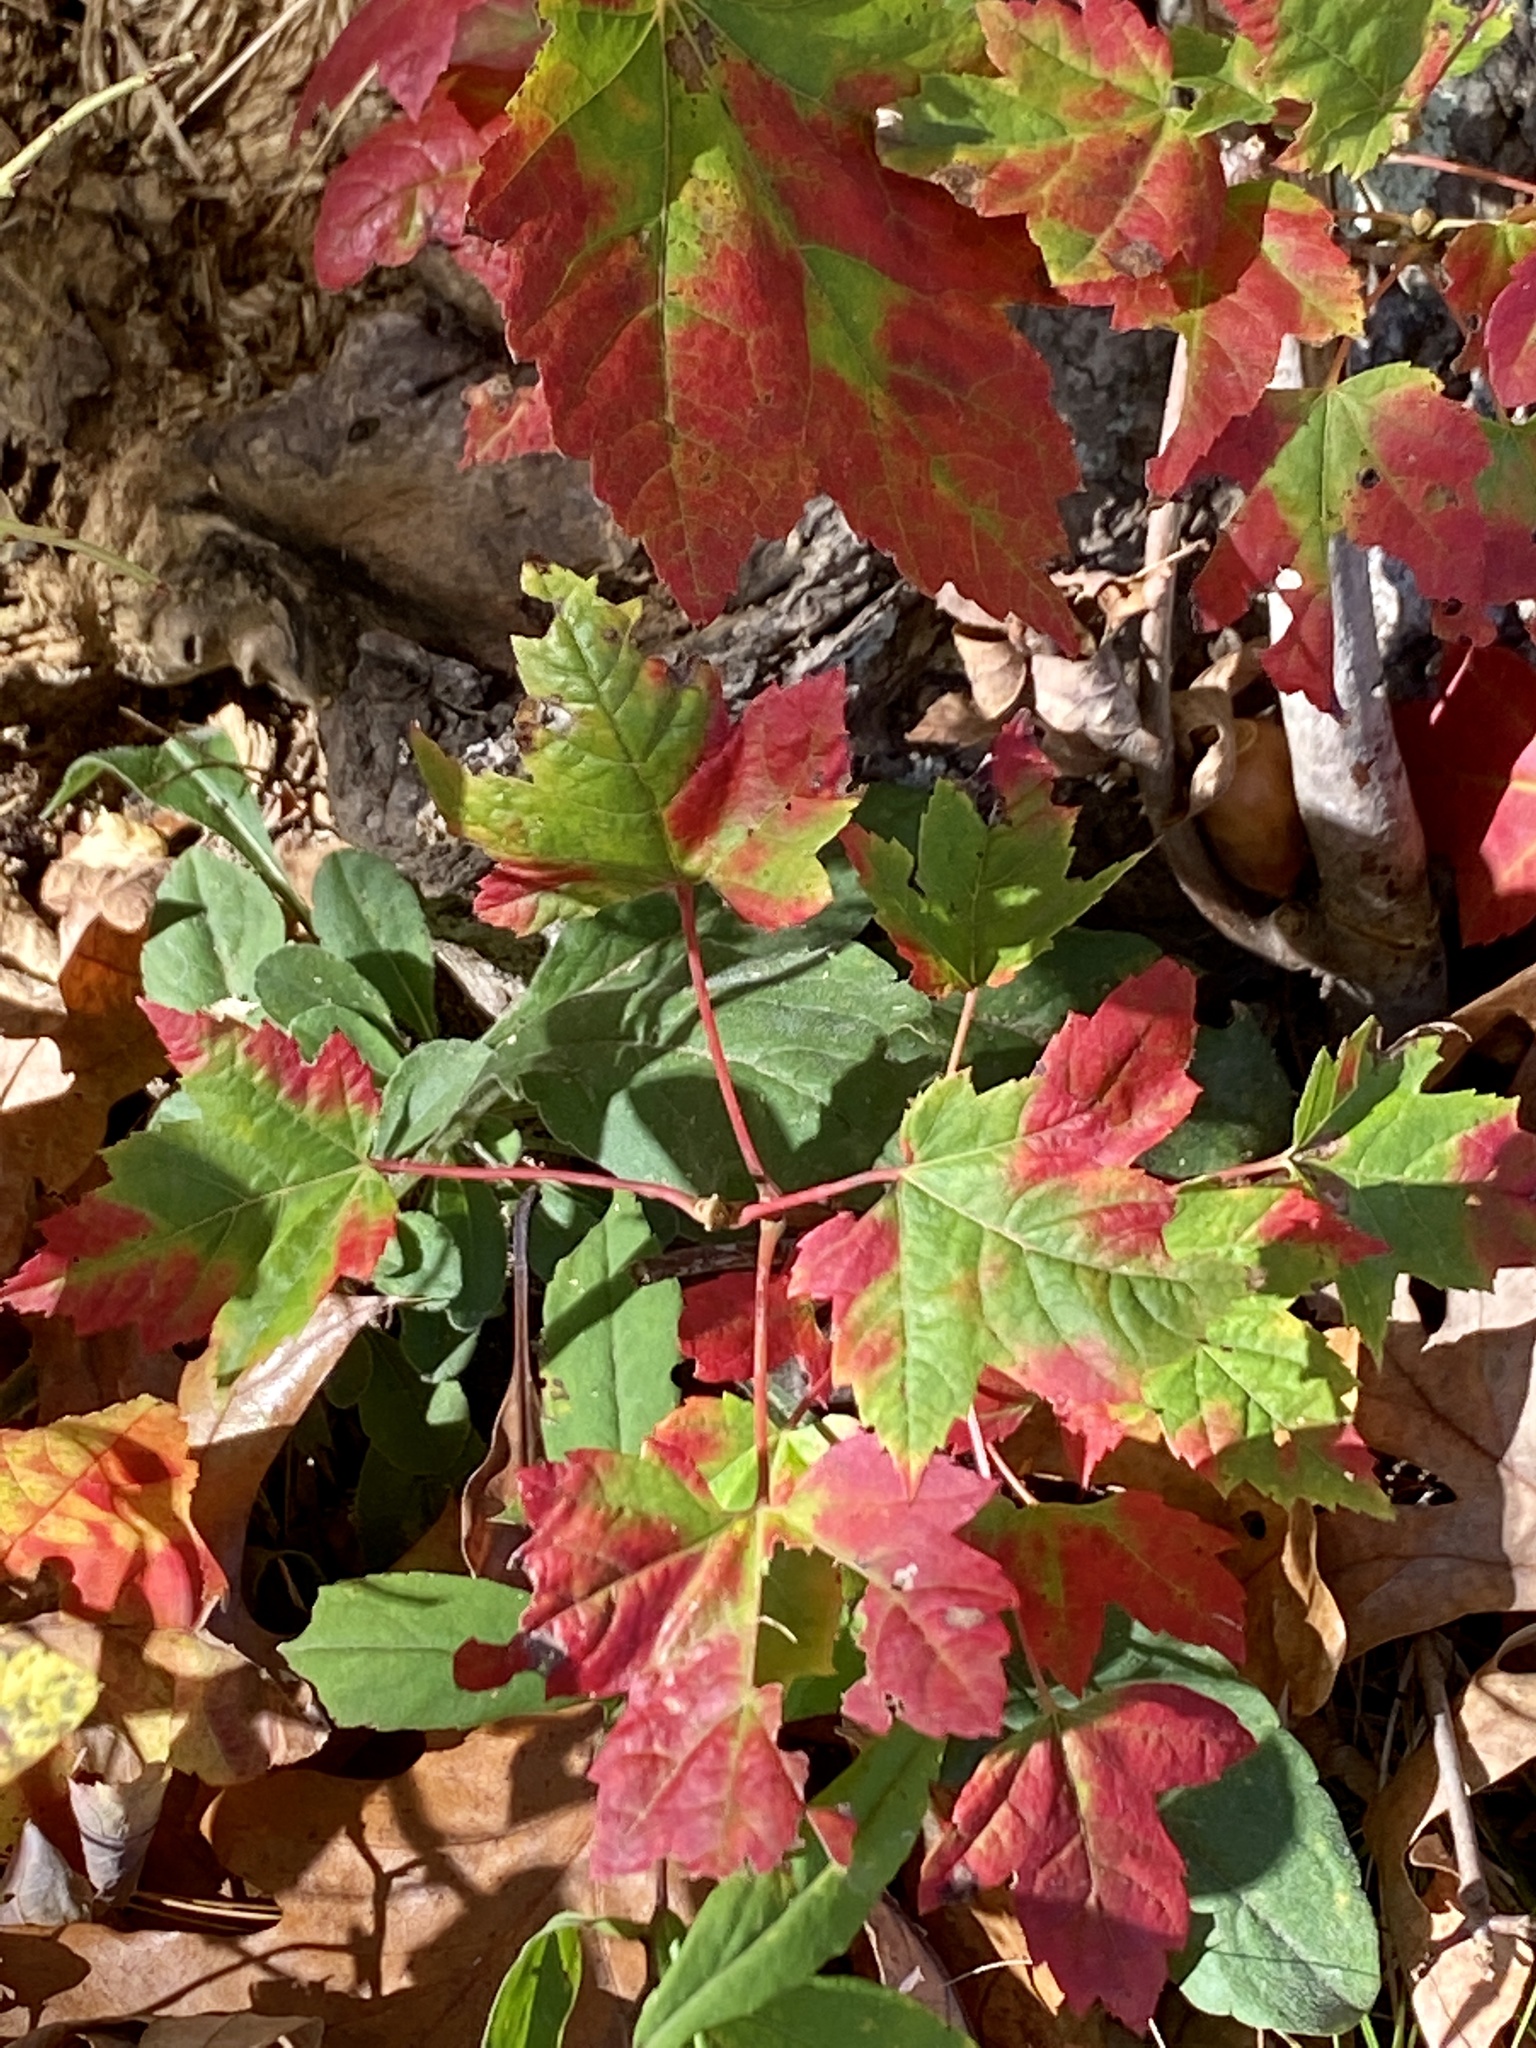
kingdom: Plantae
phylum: Tracheophyta
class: Magnoliopsida
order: Sapindales
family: Sapindaceae
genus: Acer
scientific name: Acer rubrum
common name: Red maple
